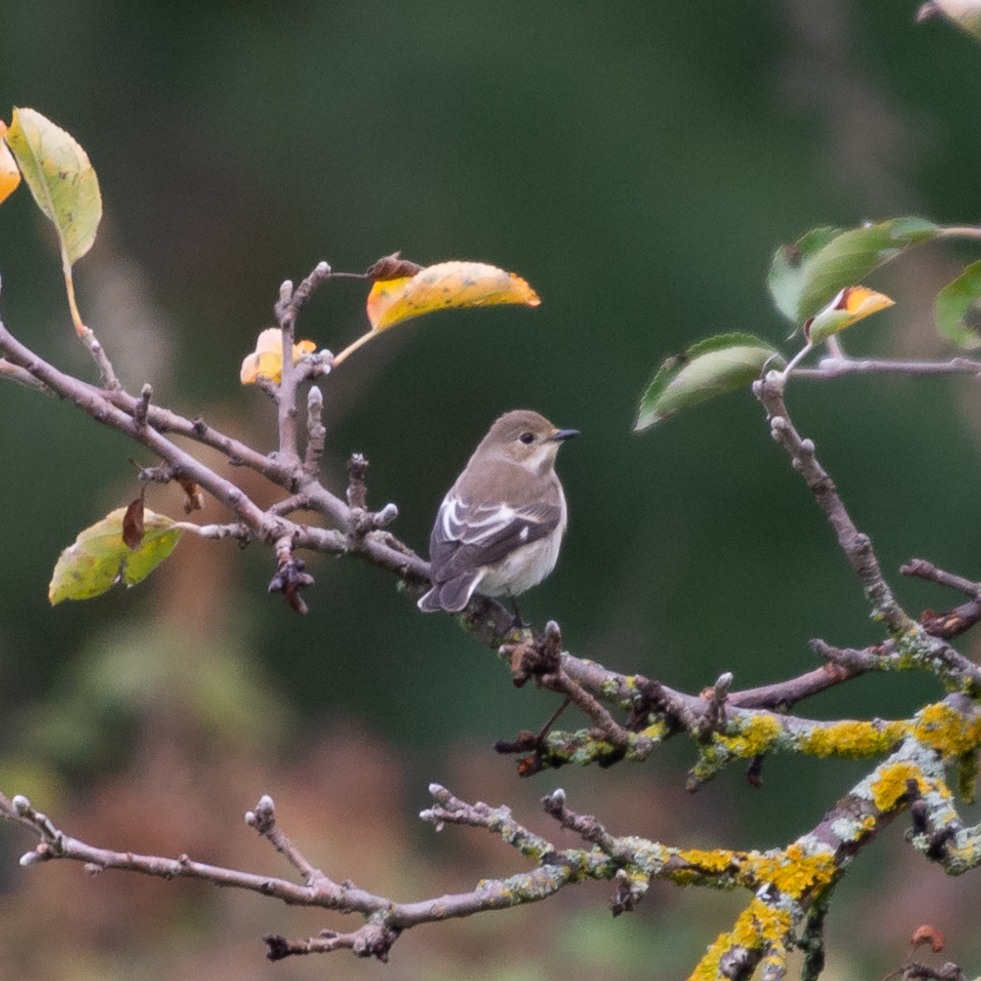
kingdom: Animalia
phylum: Chordata
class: Aves
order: Passeriformes
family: Muscicapidae
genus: Ficedula
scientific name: Ficedula hypoleuca
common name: European pied flycatcher
